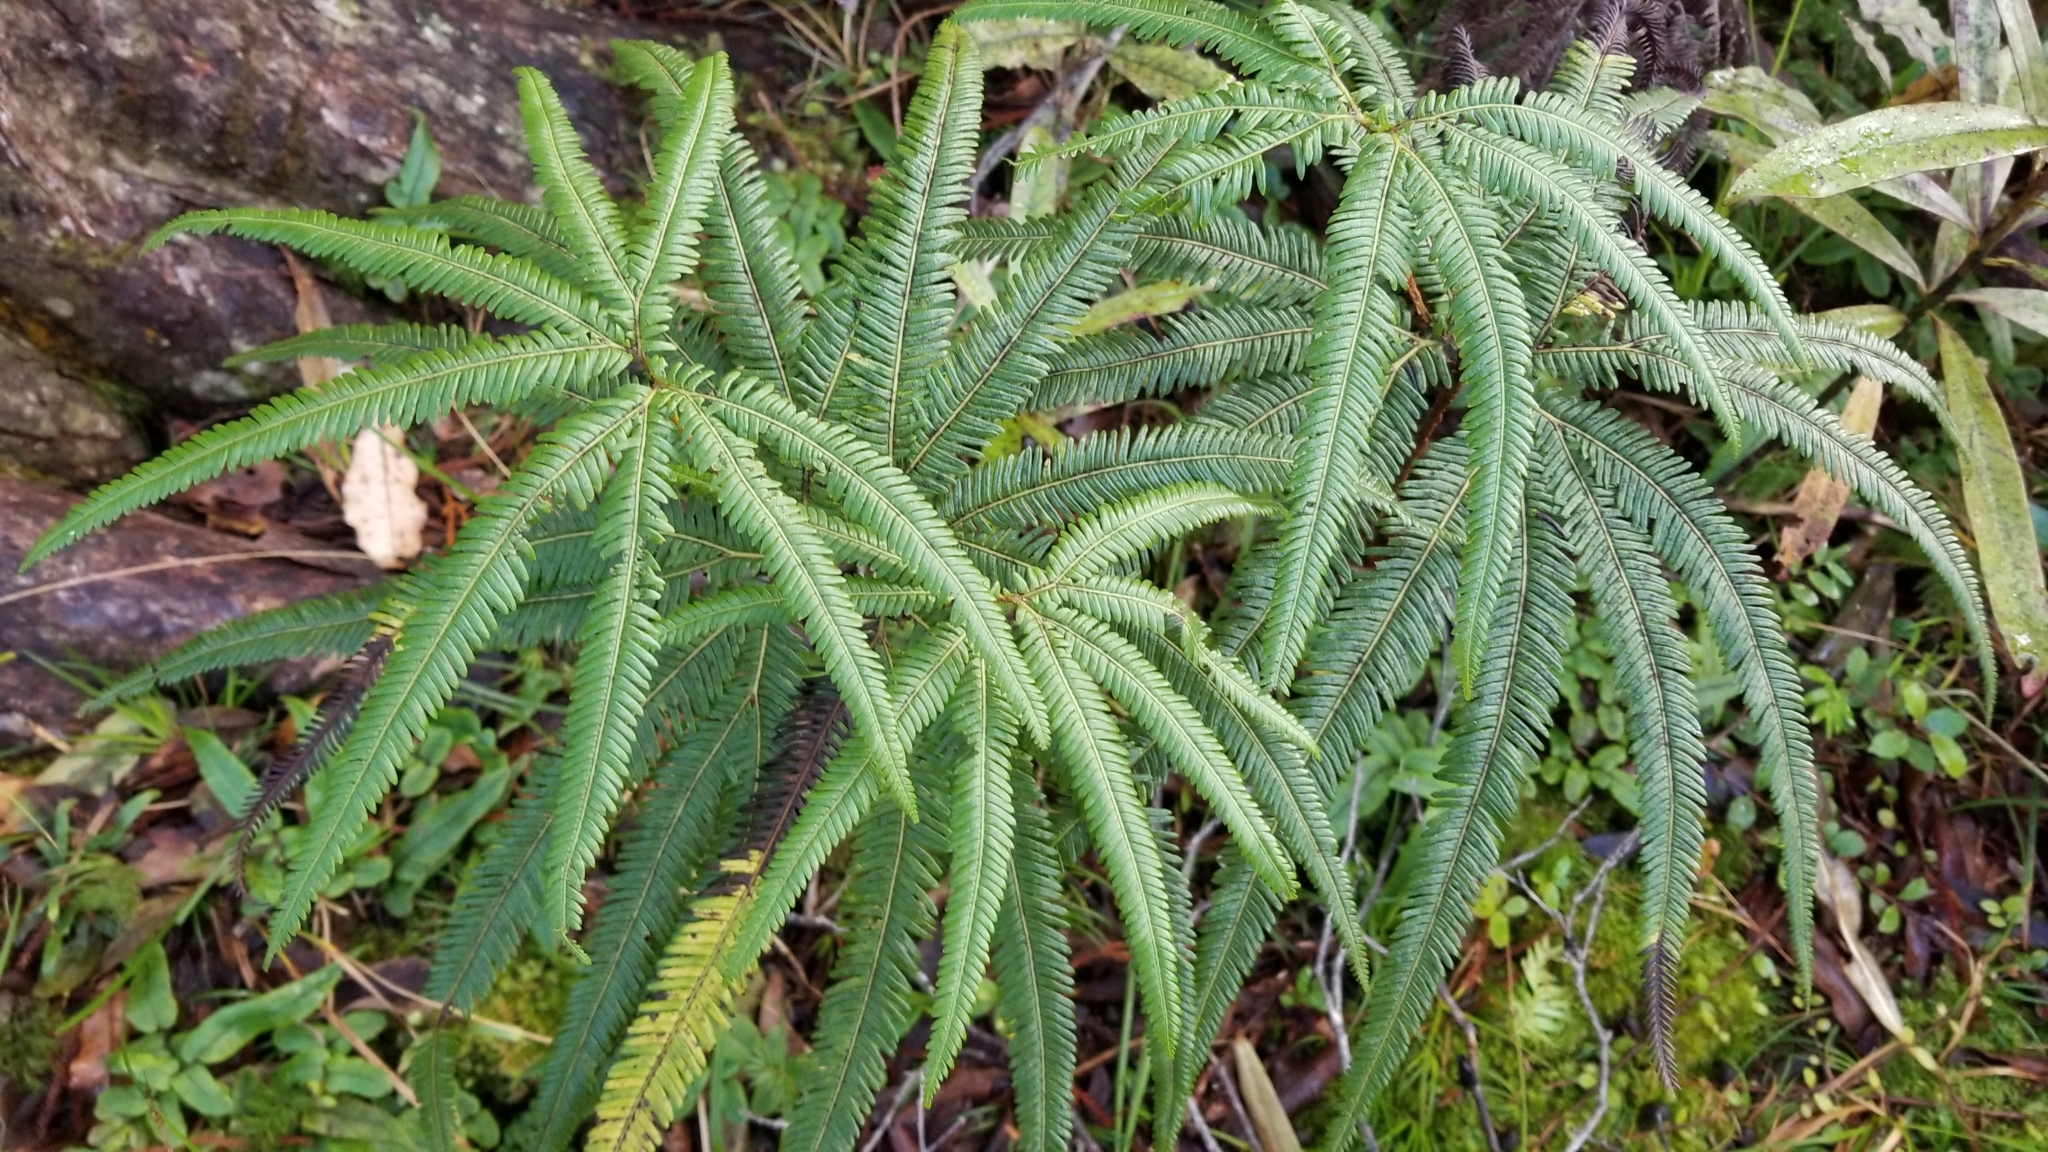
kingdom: Plantae
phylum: Tracheophyta
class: Polypodiopsida
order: Gleicheniales
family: Gleicheniaceae
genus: Sticherus
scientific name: Sticherus cunninghamii
